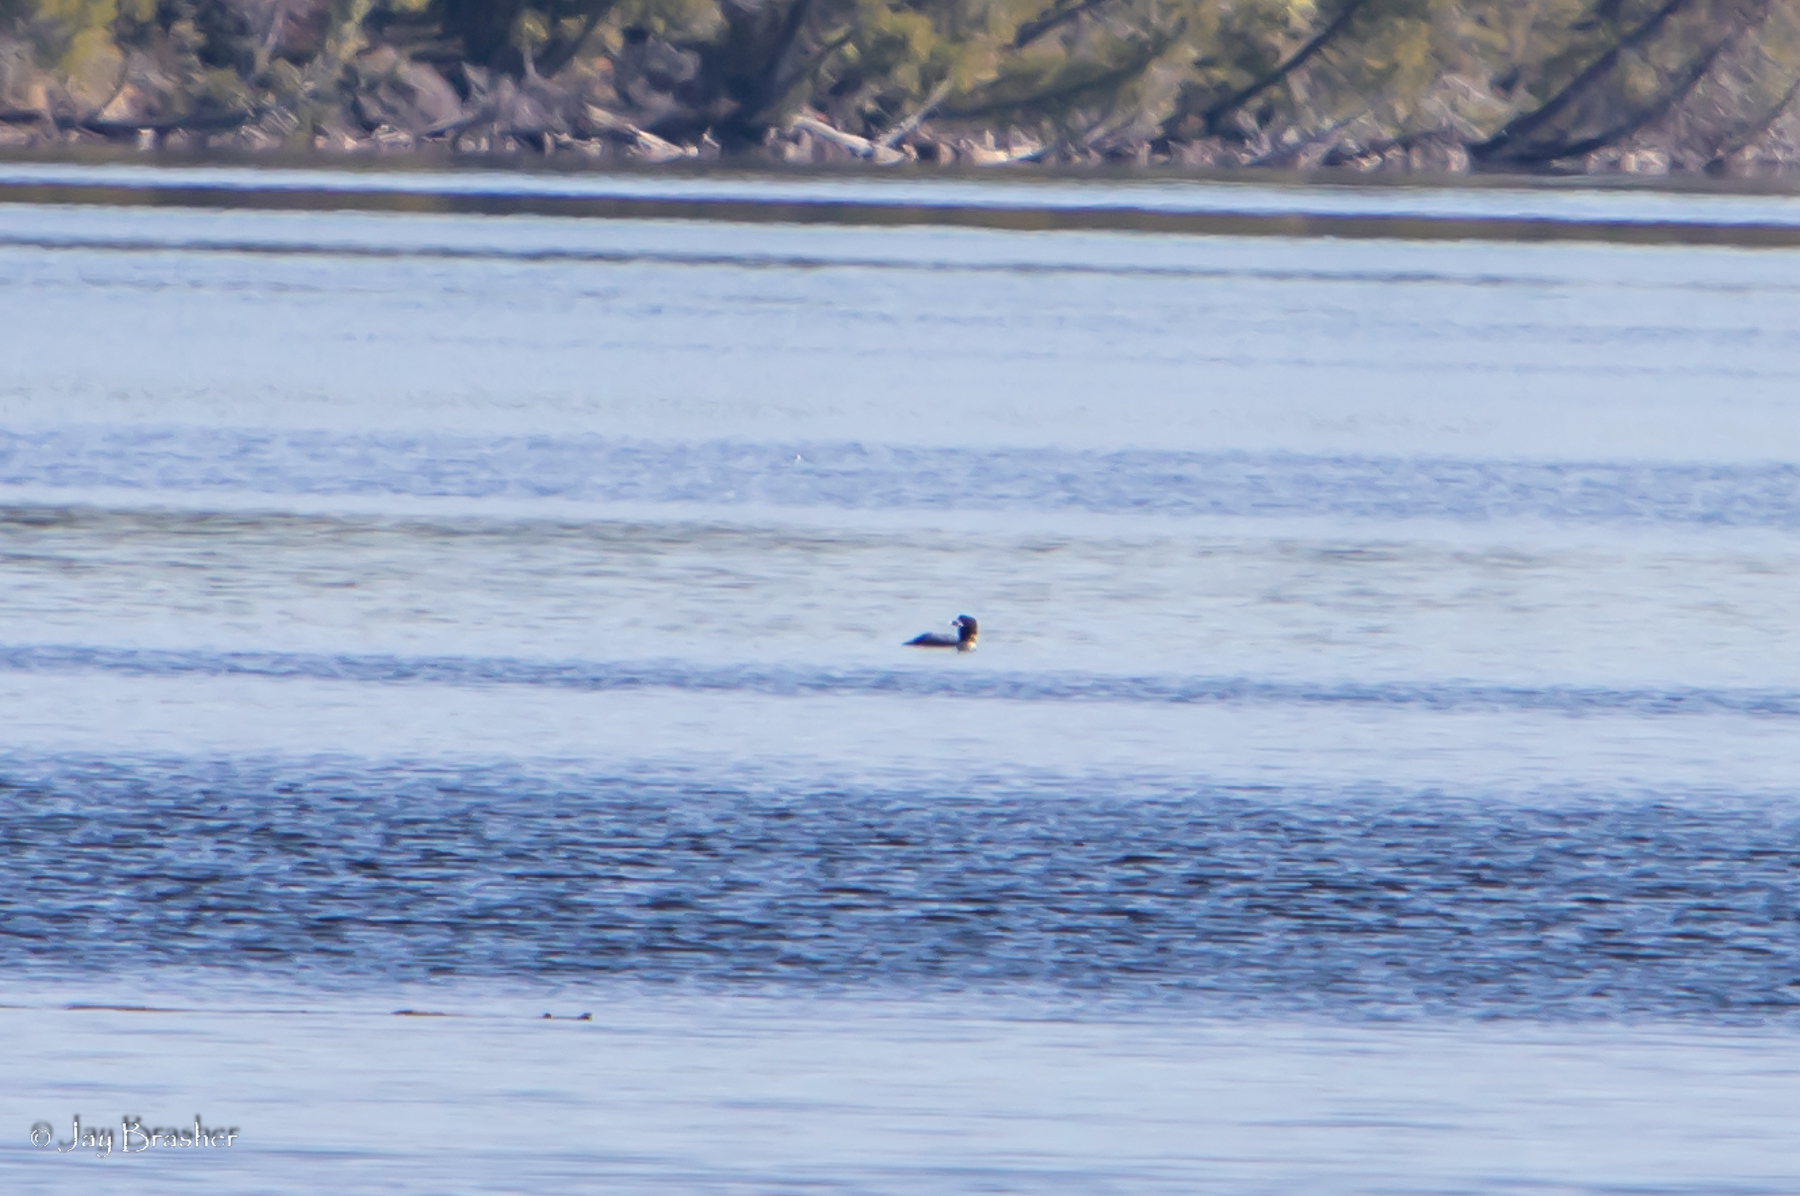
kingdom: Animalia
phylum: Chordata
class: Aves
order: Gaviiformes
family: Gaviidae
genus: Gavia
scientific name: Gavia immer
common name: Common loon
